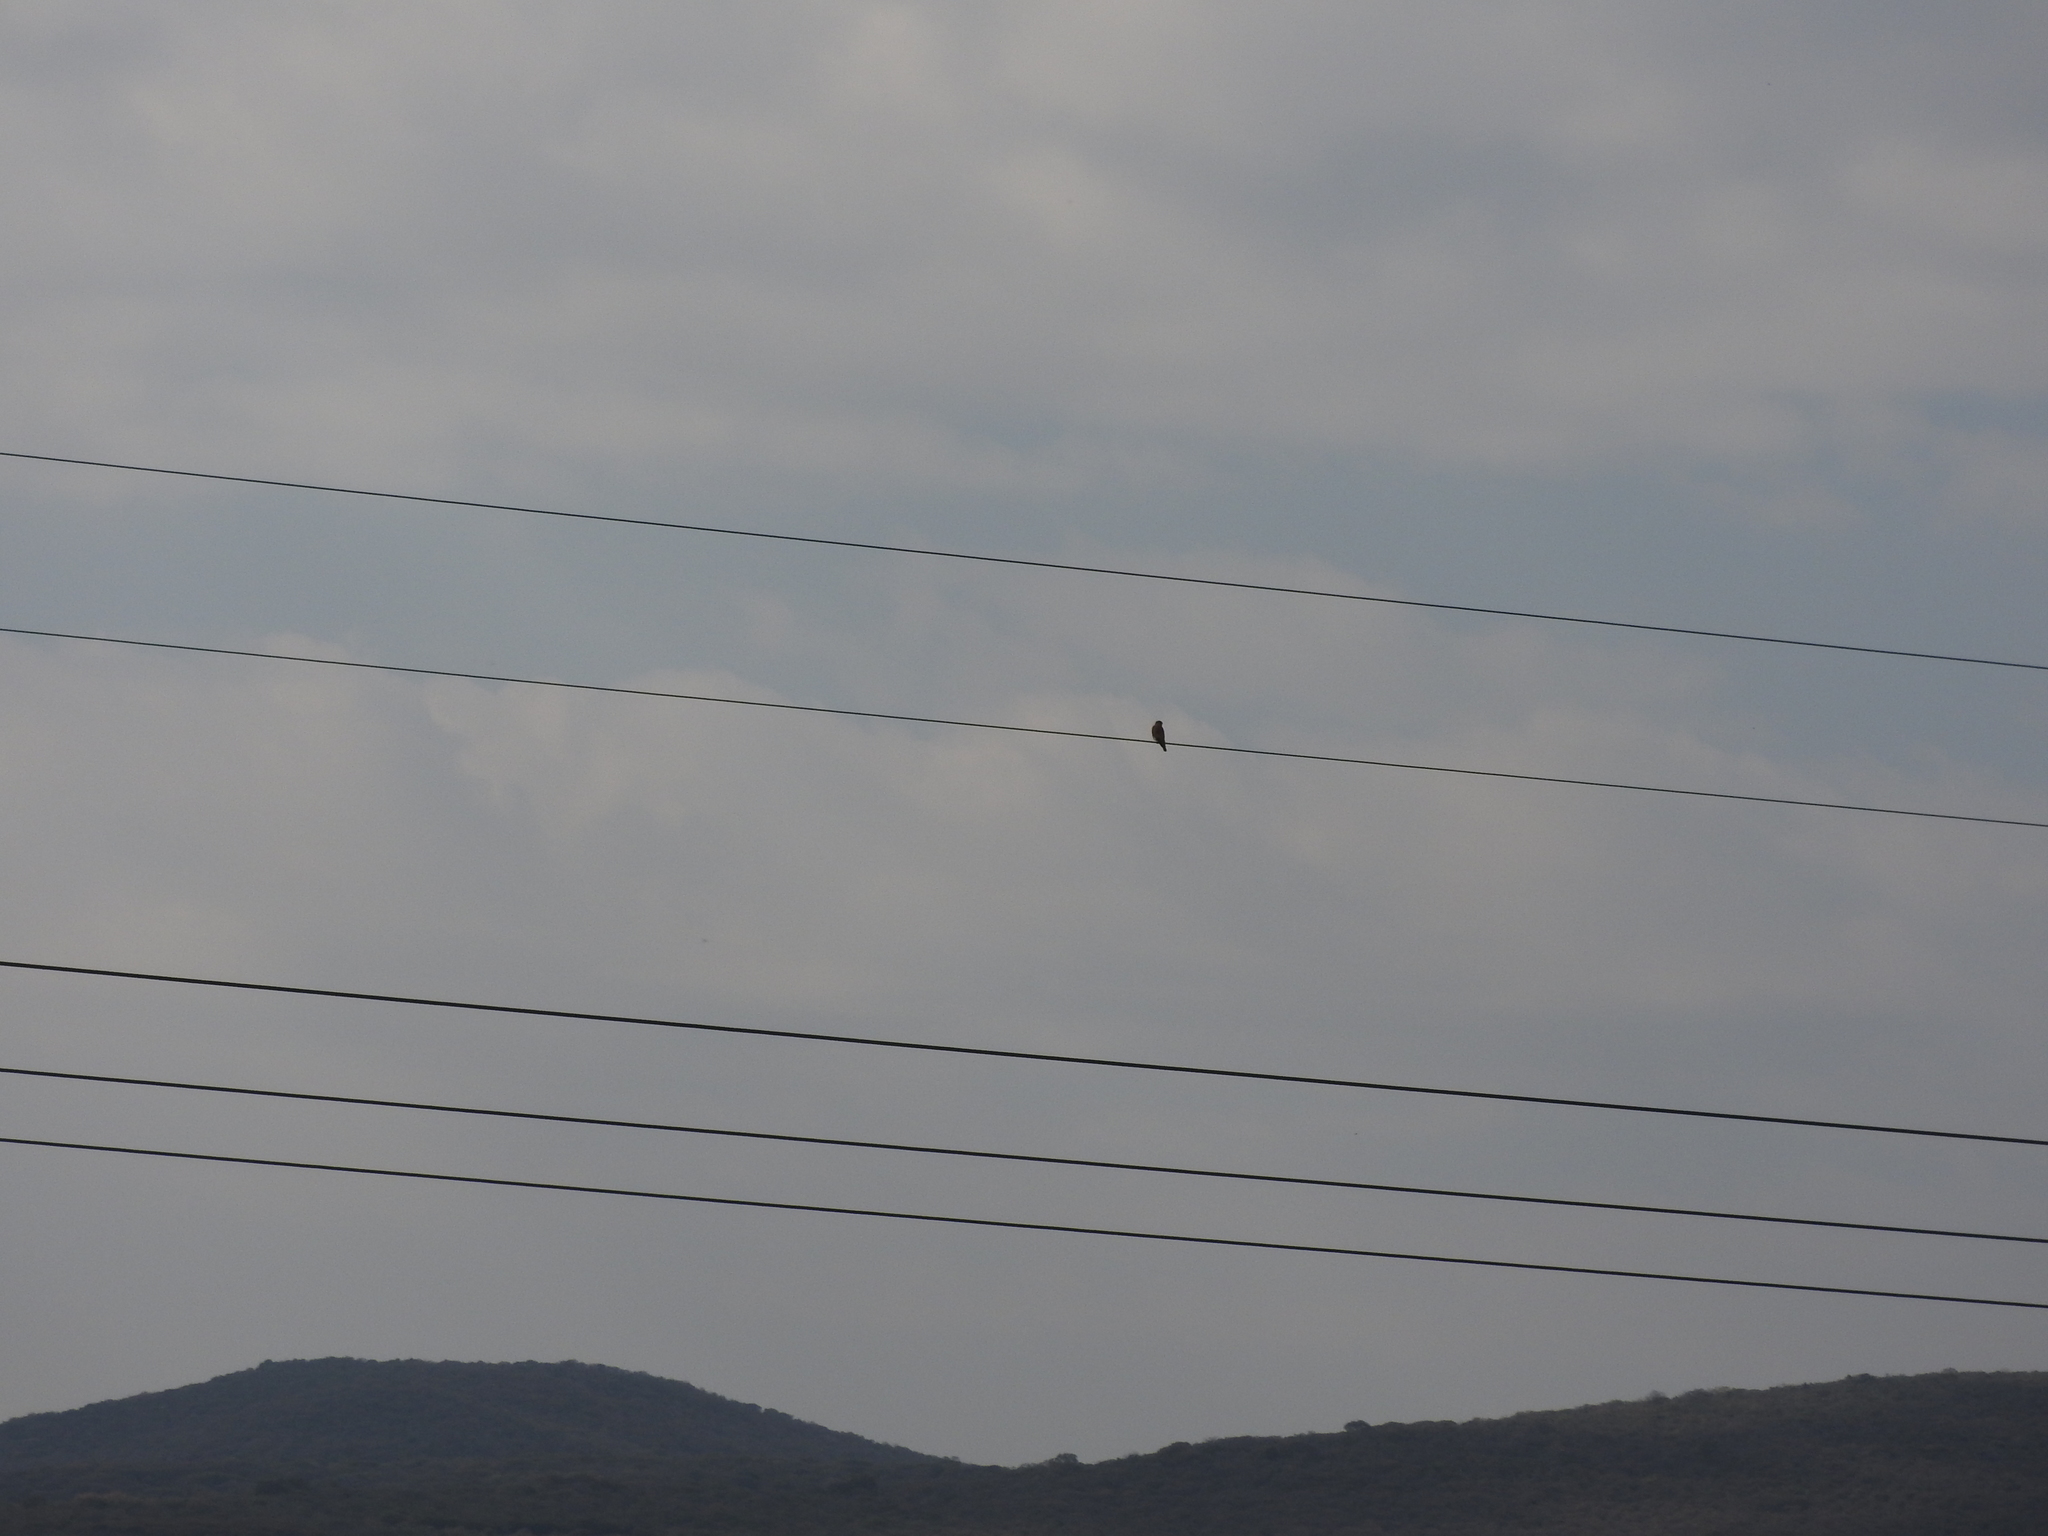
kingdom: Animalia
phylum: Chordata
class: Aves
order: Falconiformes
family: Falconidae
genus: Falco
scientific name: Falco sparverius
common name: American kestrel
